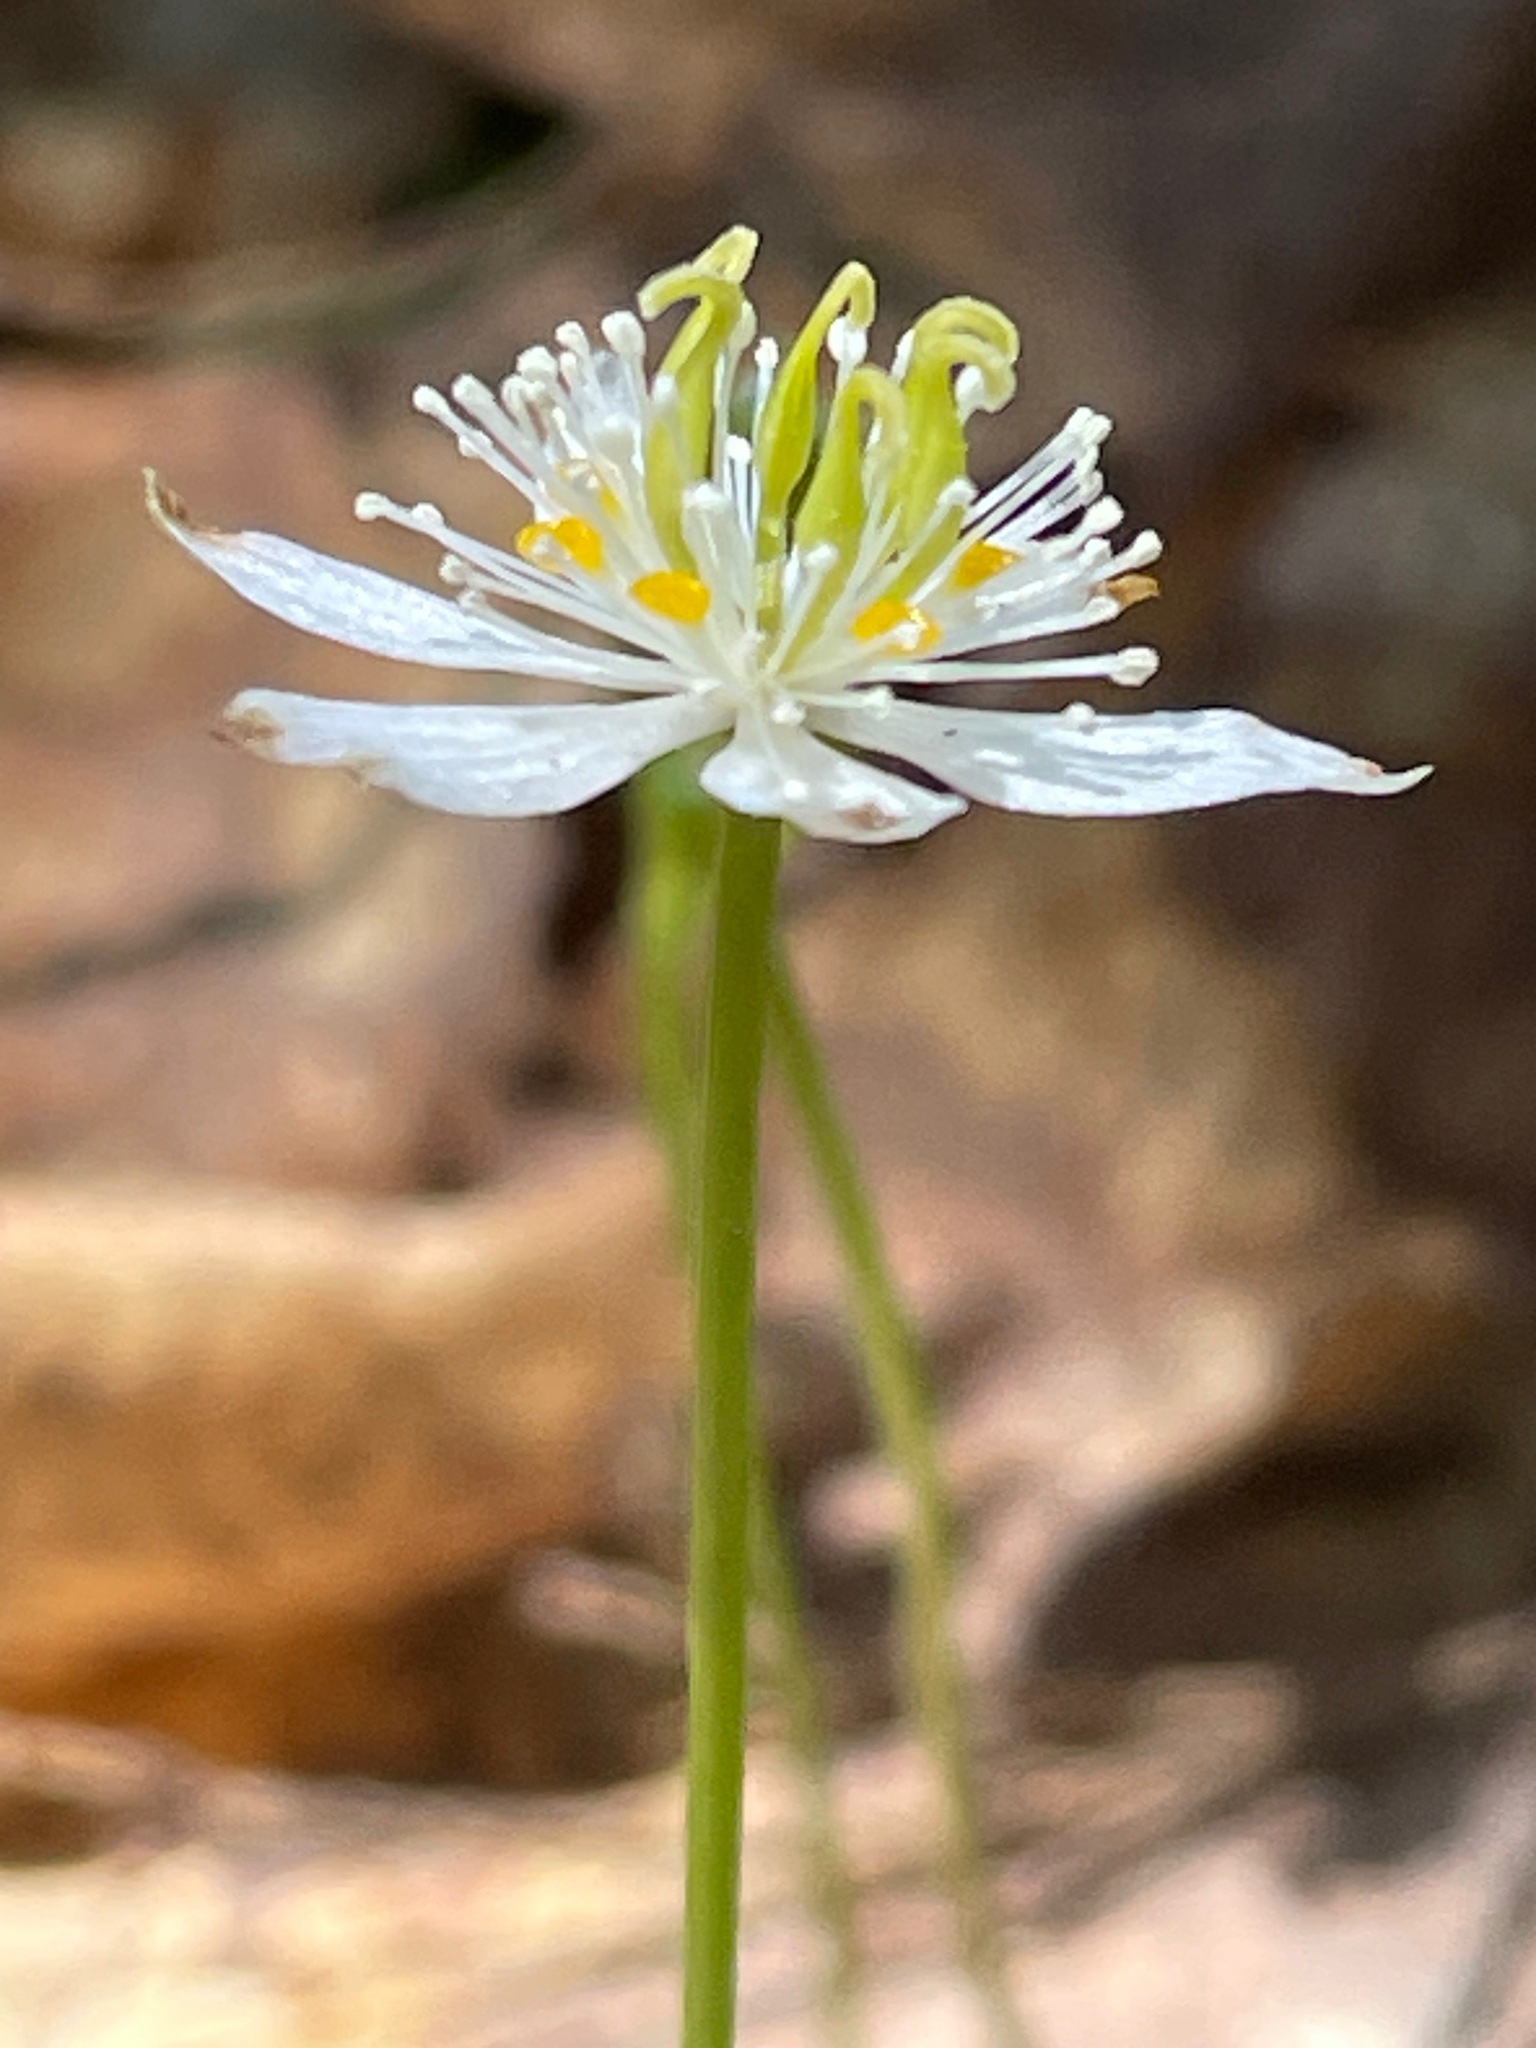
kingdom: Plantae
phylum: Tracheophyta
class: Magnoliopsida
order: Ranunculales
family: Ranunculaceae
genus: Coptis
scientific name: Coptis trifolia
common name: Canker-root
